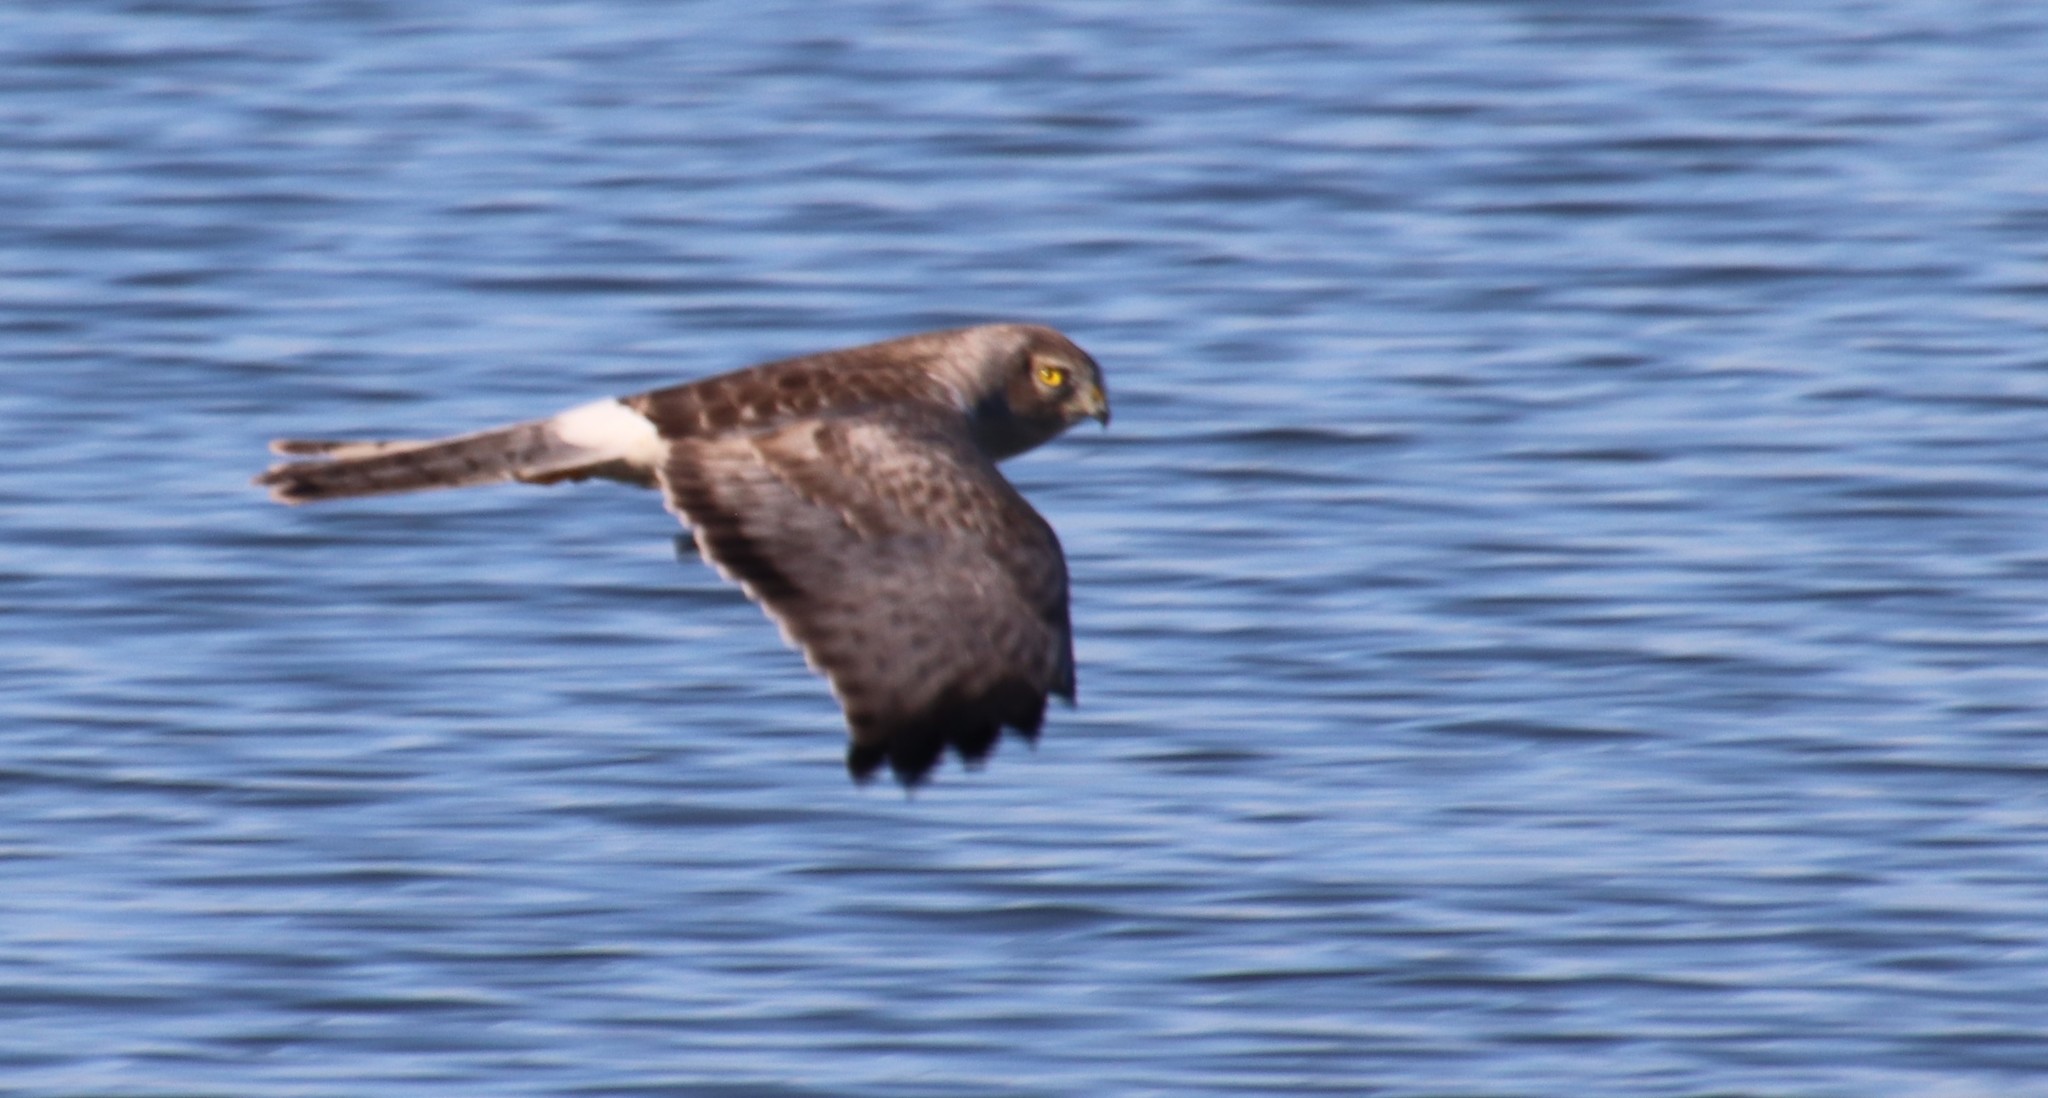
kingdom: Animalia
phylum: Chordata
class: Aves
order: Accipitriformes
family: Accipitridae
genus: Circus
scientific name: Circus cyaneus
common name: Hen harrier
